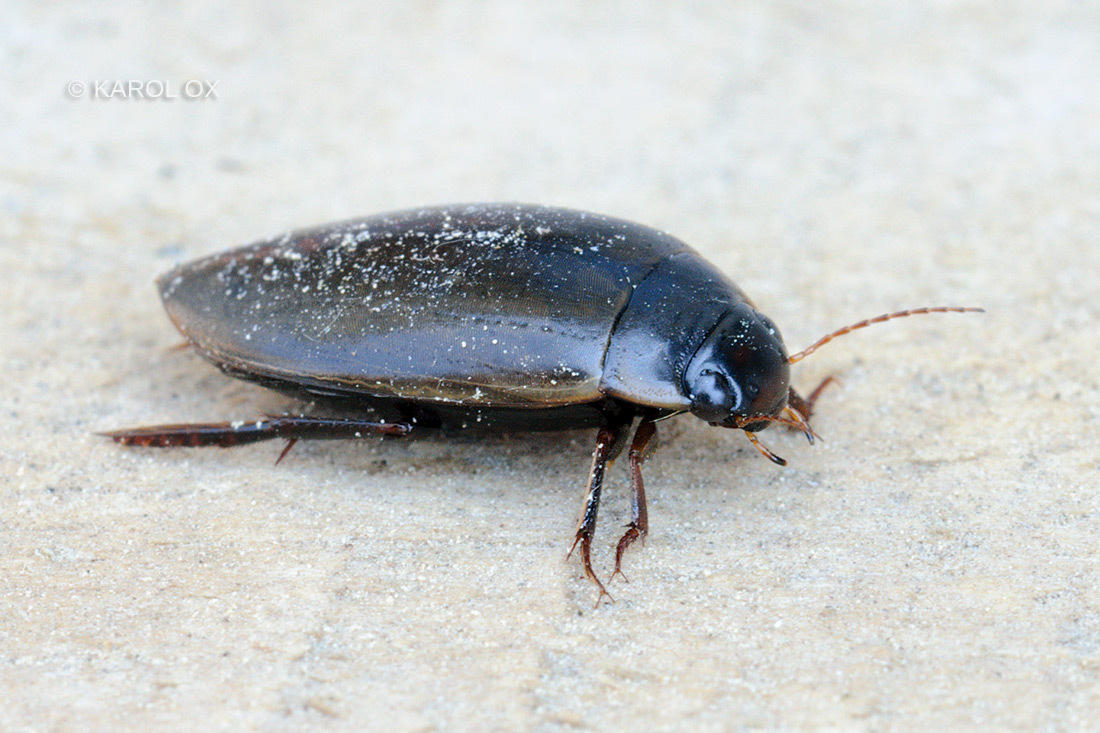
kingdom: Animalia
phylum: Arthropoda
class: Insecta
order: Coleoptera
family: Dytiscidae
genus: Colymbetes
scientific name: Colymbetes fuscus
